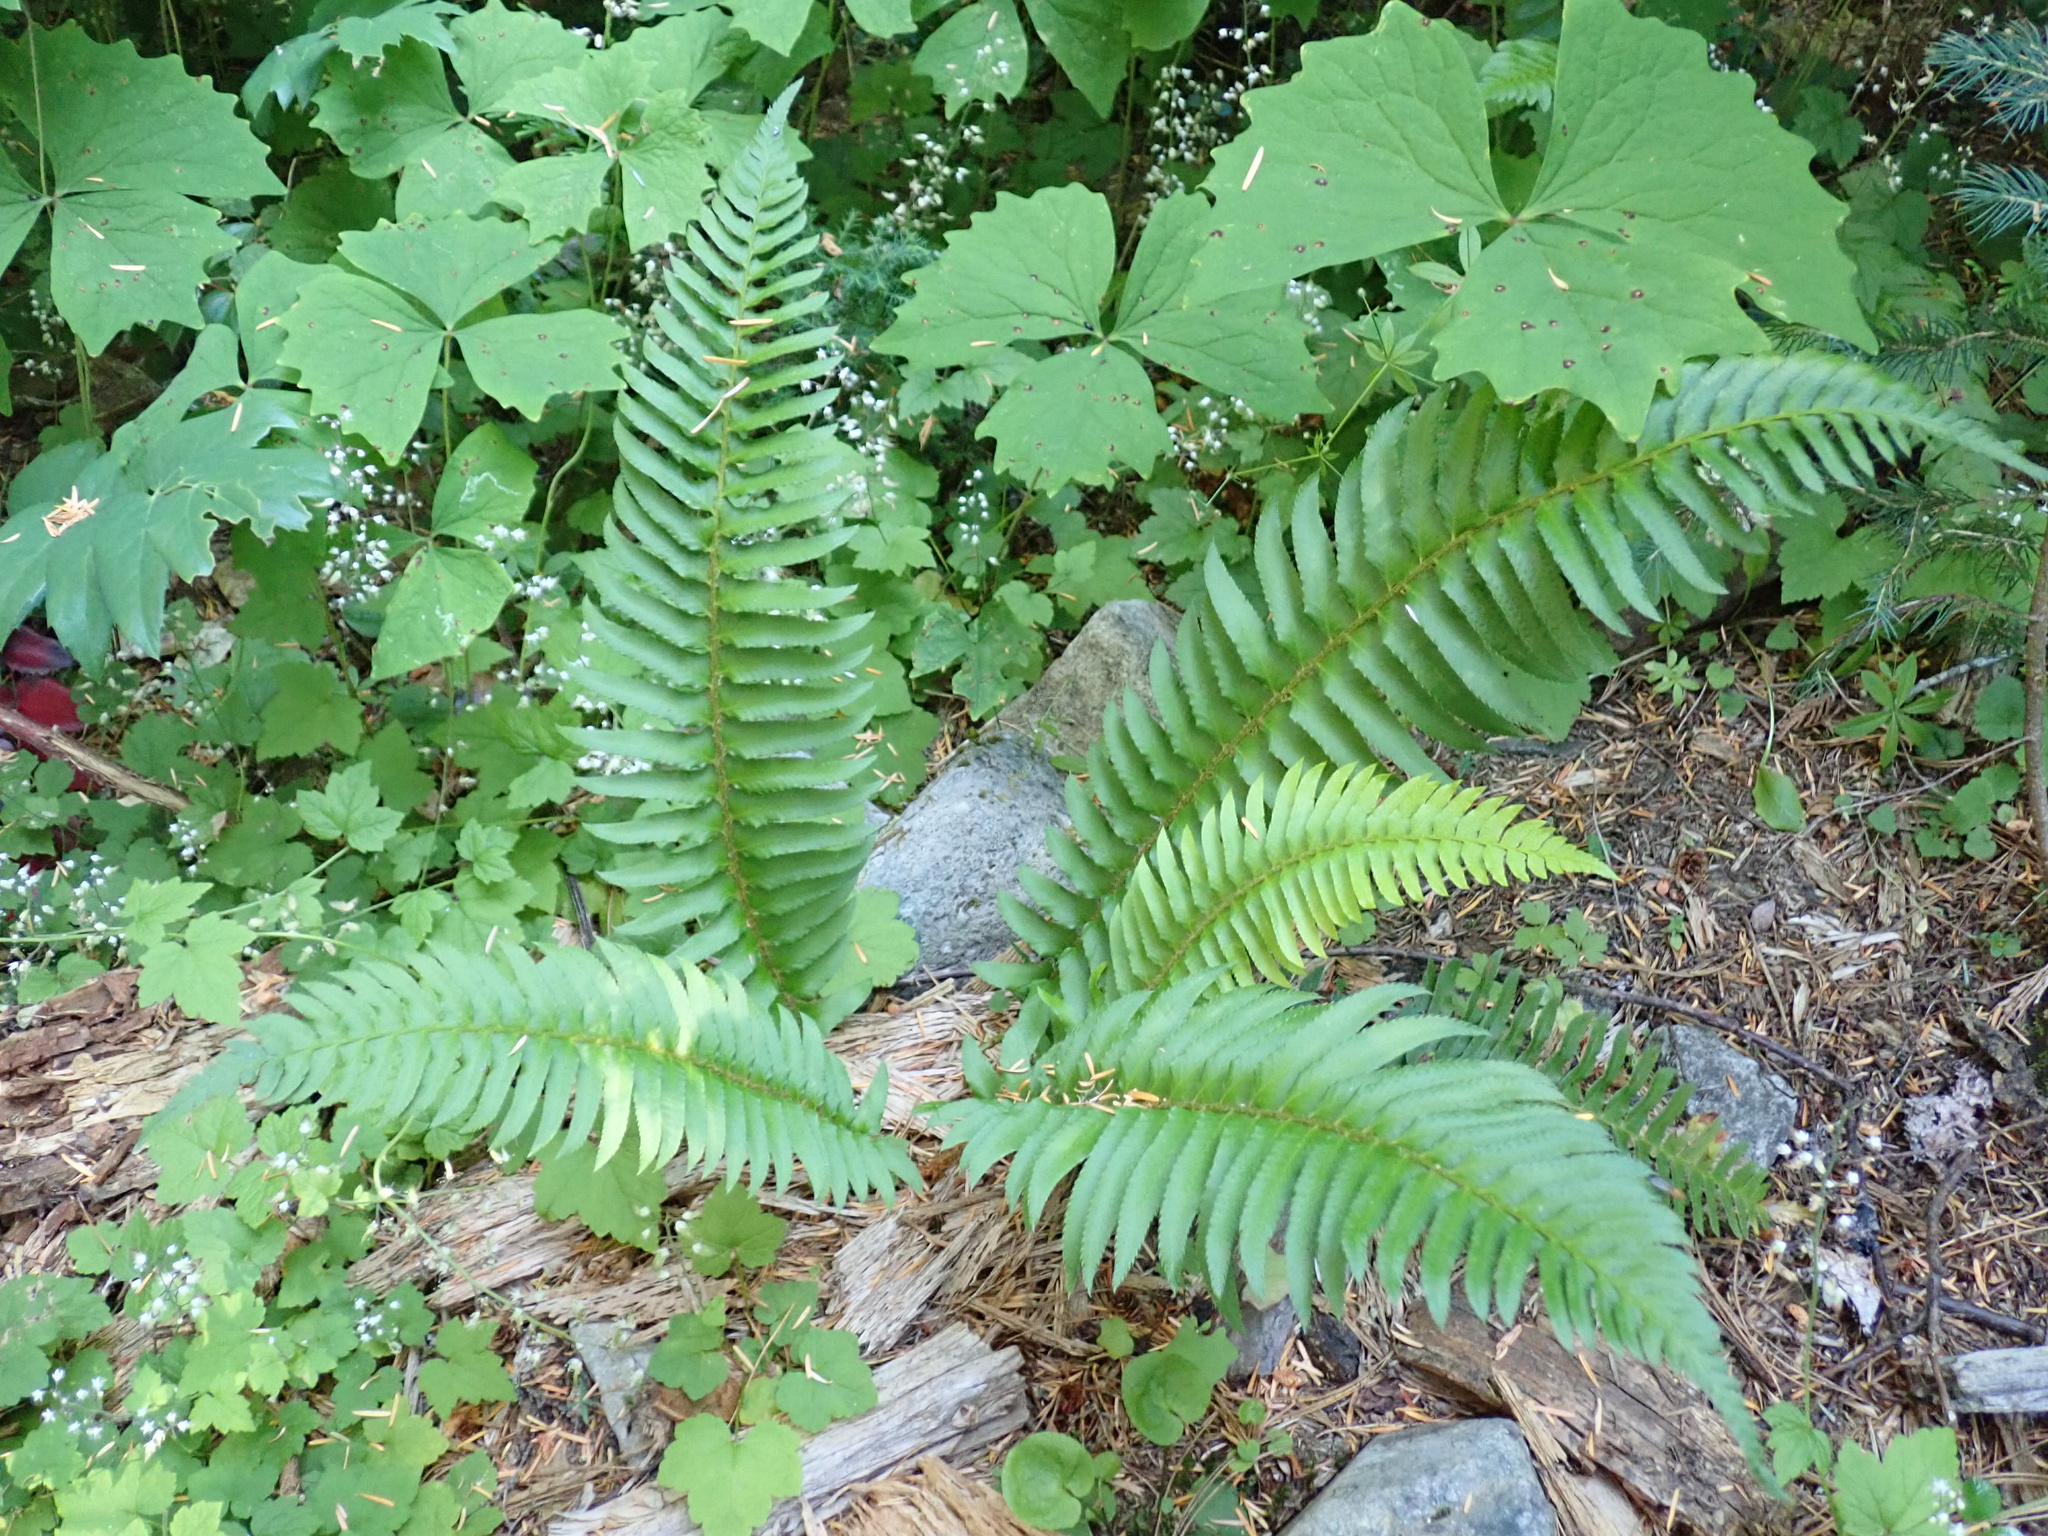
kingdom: Plantae
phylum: Tracheophyta
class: Polypodiopsida
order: Polypodiales
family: Dryopteridaceae
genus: Polystichum
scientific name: Polystichum munitum
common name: Western sword-fern
